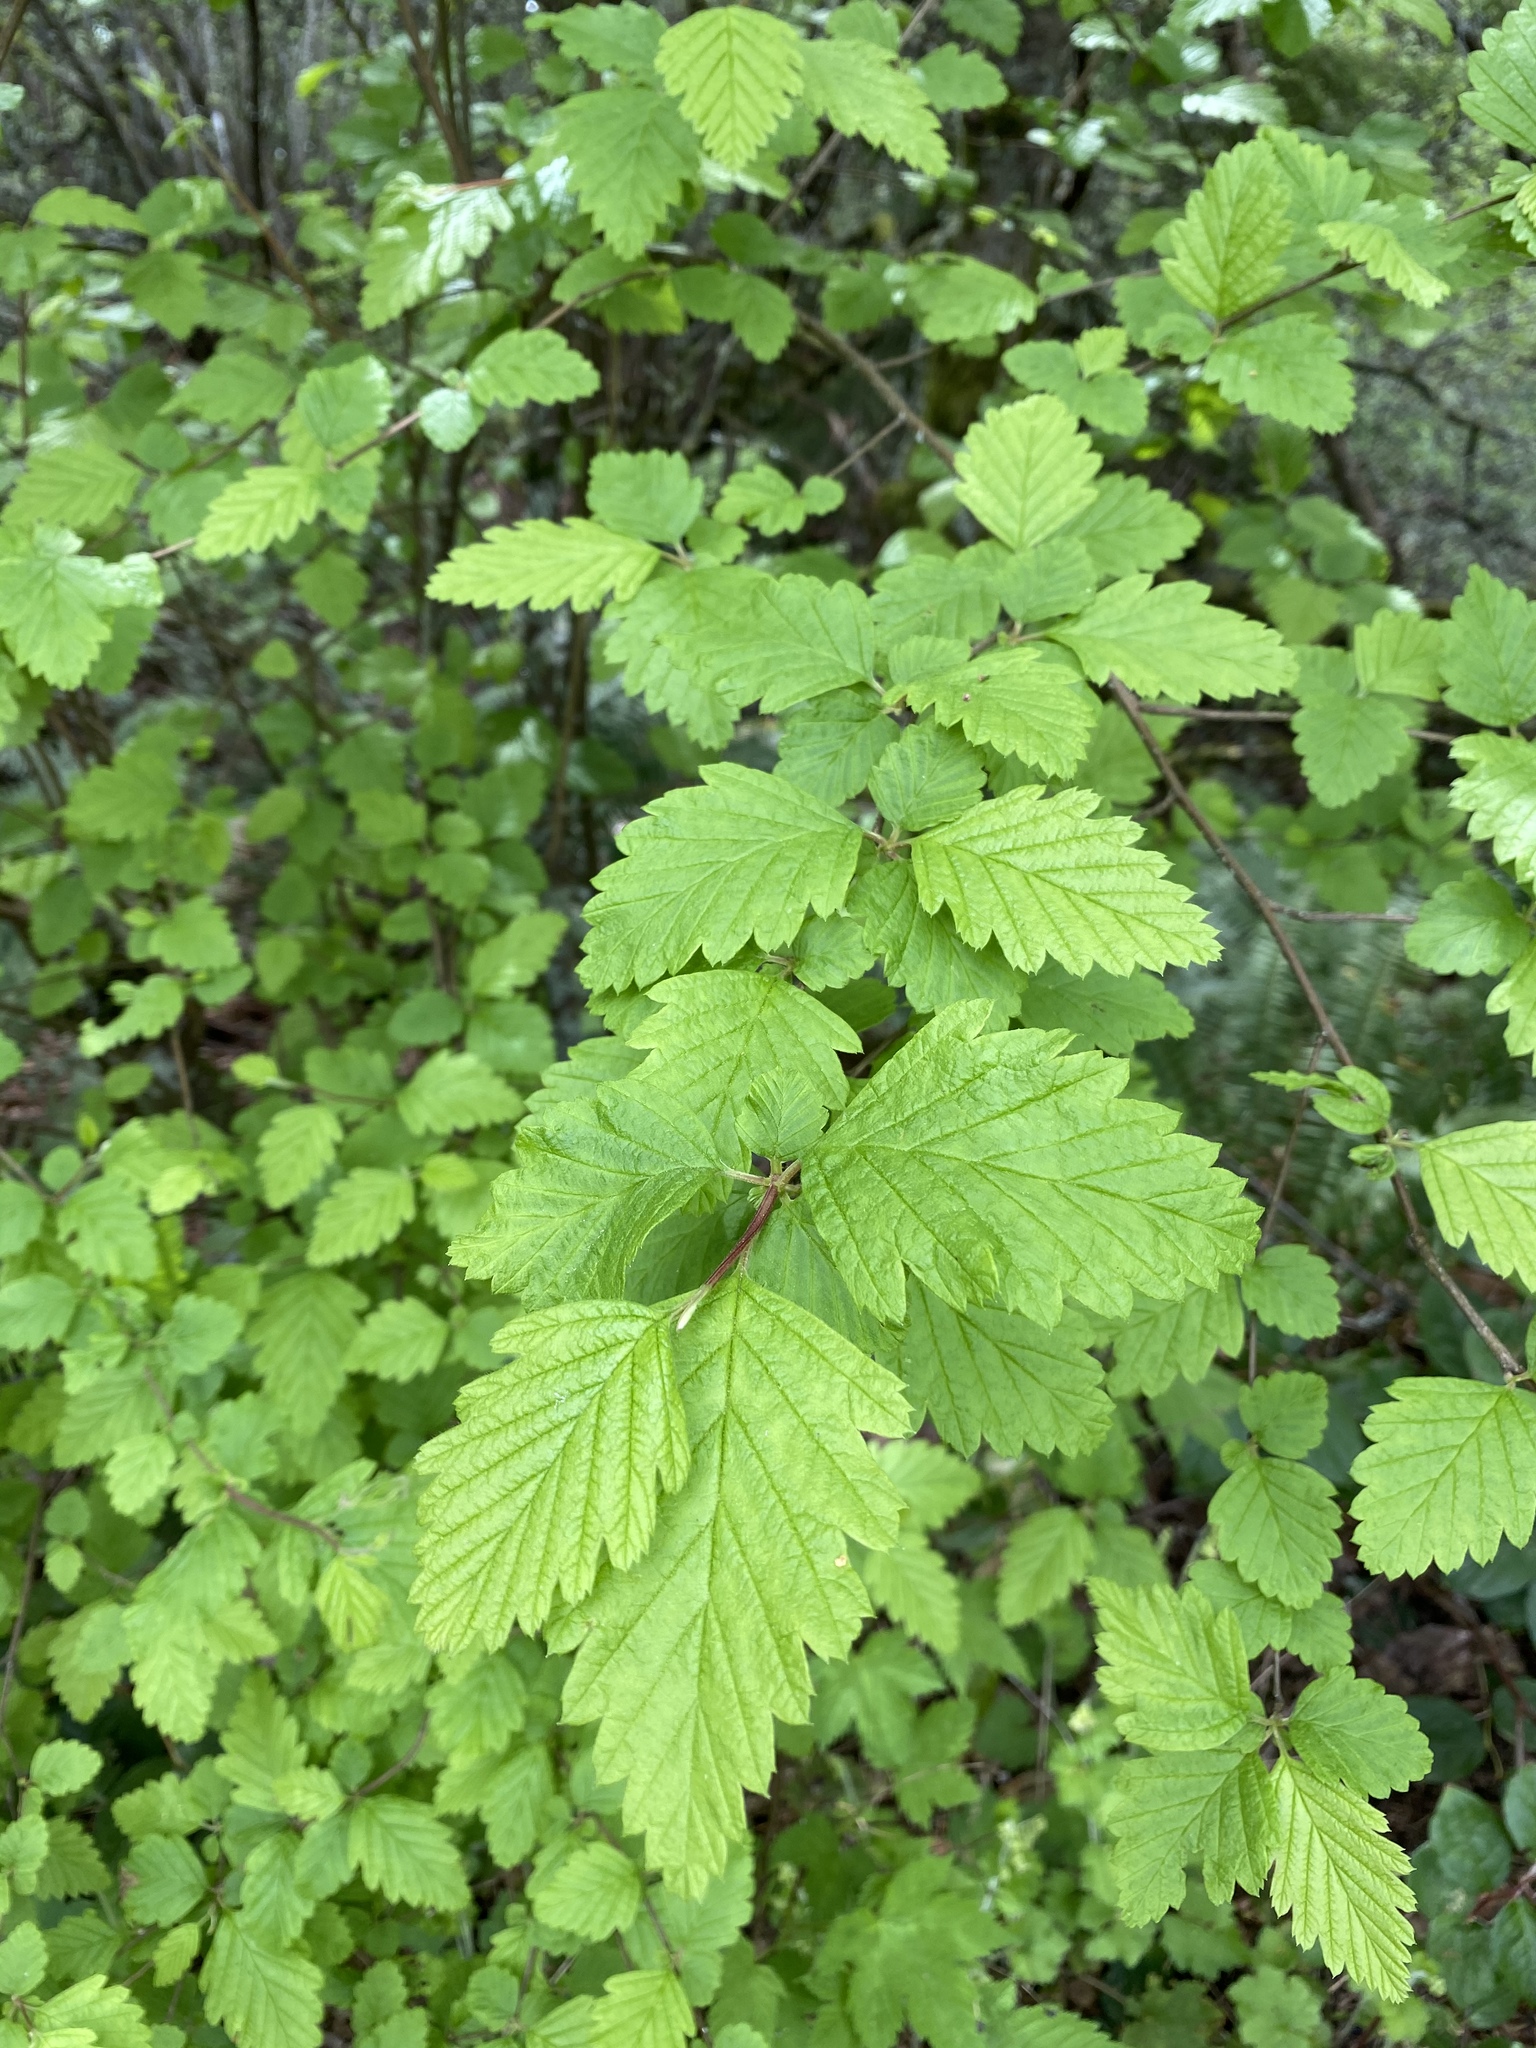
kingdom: Plantae
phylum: Tracheophyta
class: Magnoliopsida
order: Rosales
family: Rosaceae
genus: Holodiscus
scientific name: Holodiscus discolor
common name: Oceanspray
